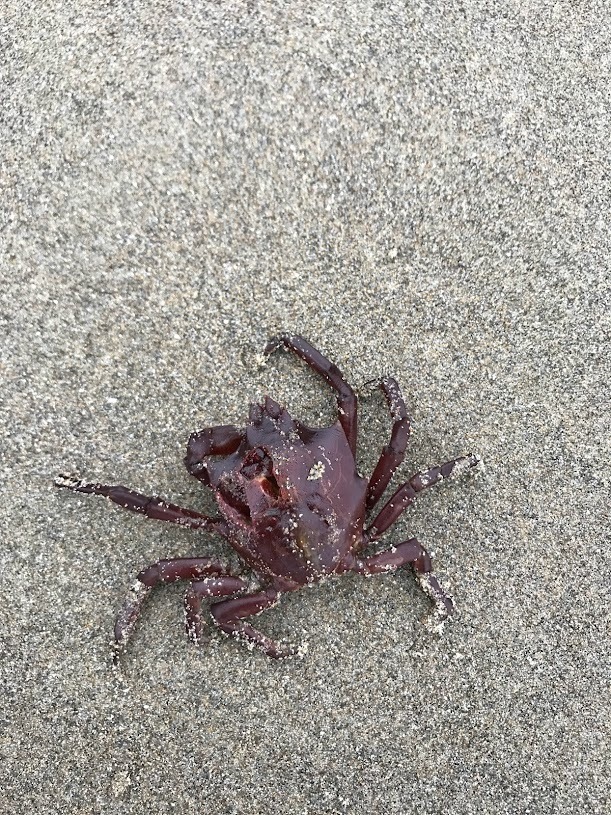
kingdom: Animalia
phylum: Arthropoda
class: Malacostraca
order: Decapoda
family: Epialtidae
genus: Pugettia
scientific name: Pugettia producta
